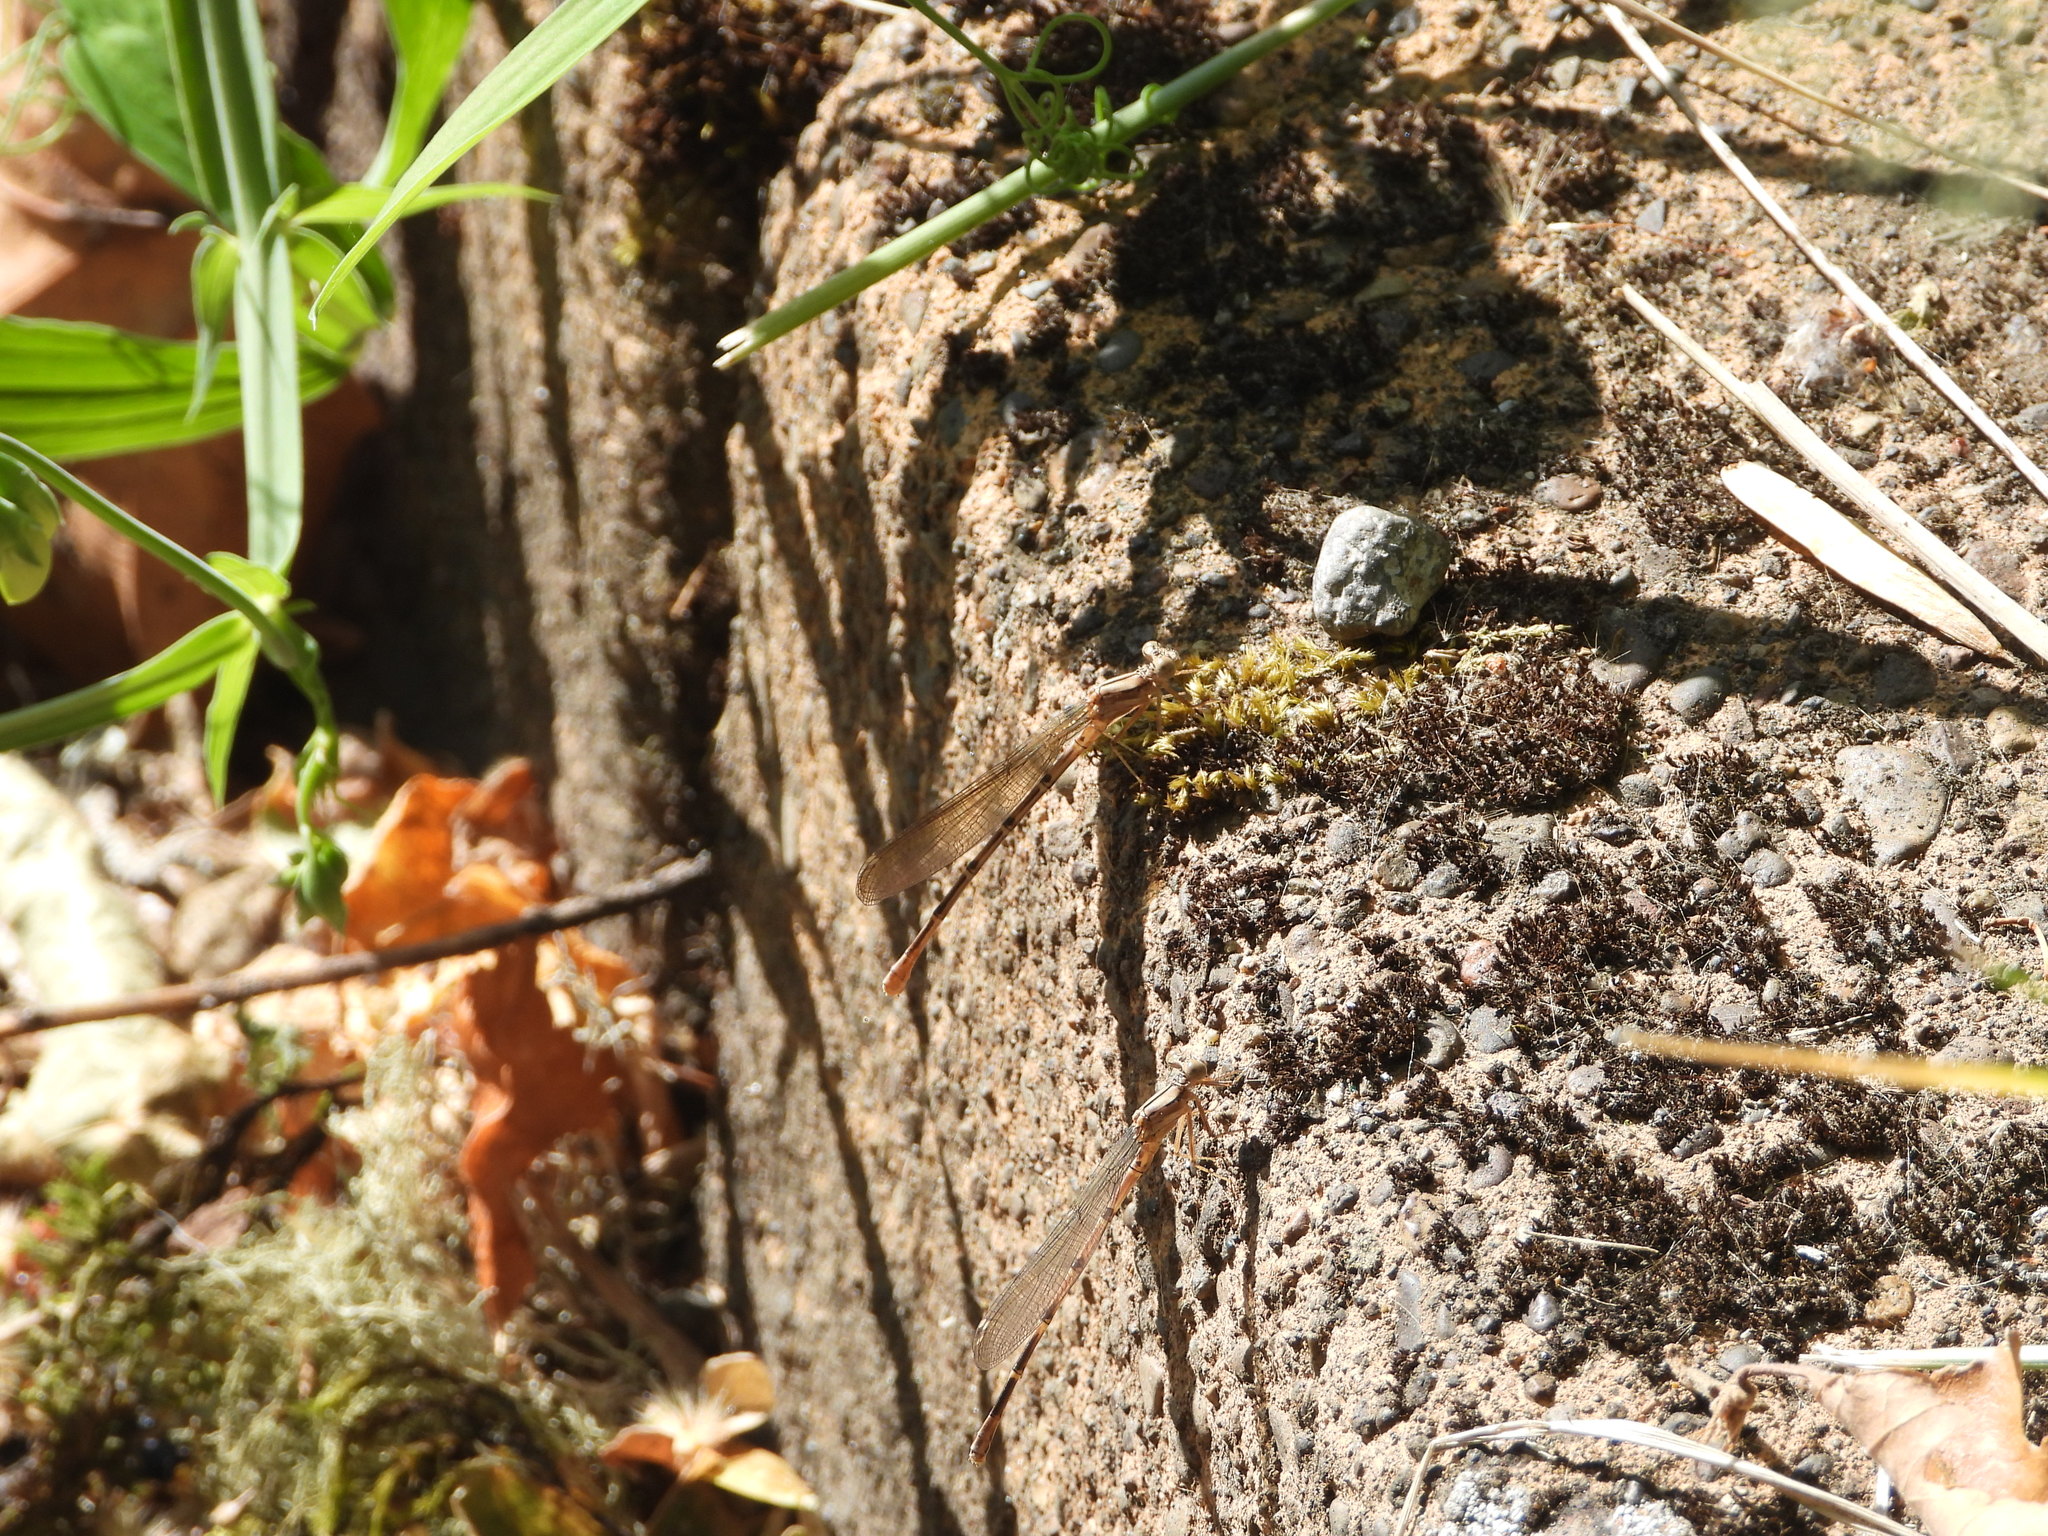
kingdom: Animalia
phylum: Arthropoda
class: Insecta
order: Odonata
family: Coenagrionidae
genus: Argia
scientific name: Argia emma
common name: Emma's dancer
